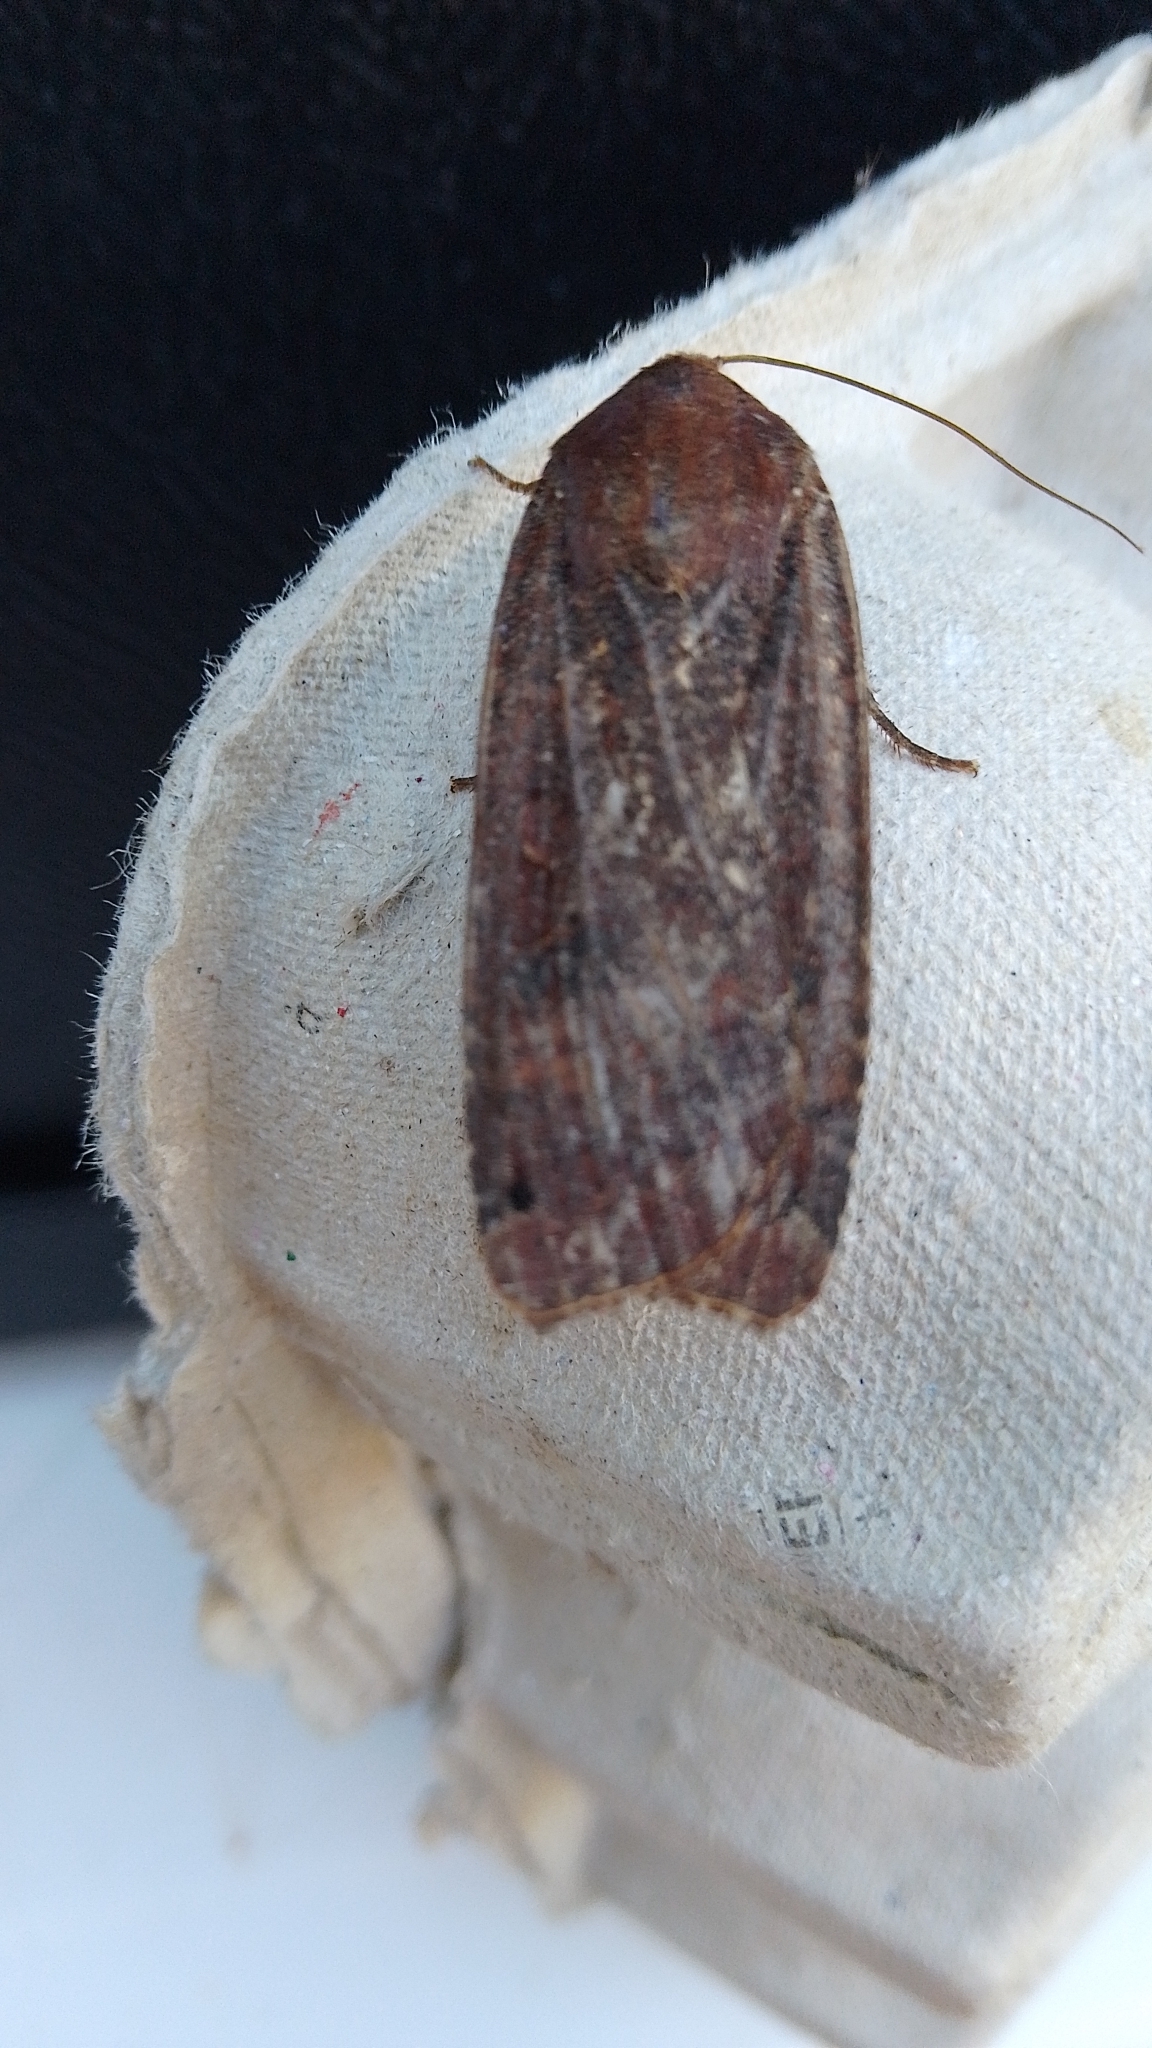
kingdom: Animalia
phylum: Arthropoda
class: Insecta
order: Lepidoptera
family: Noctuidae
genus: Noctua
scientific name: Noctua pronuba
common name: Large yellow underwing
